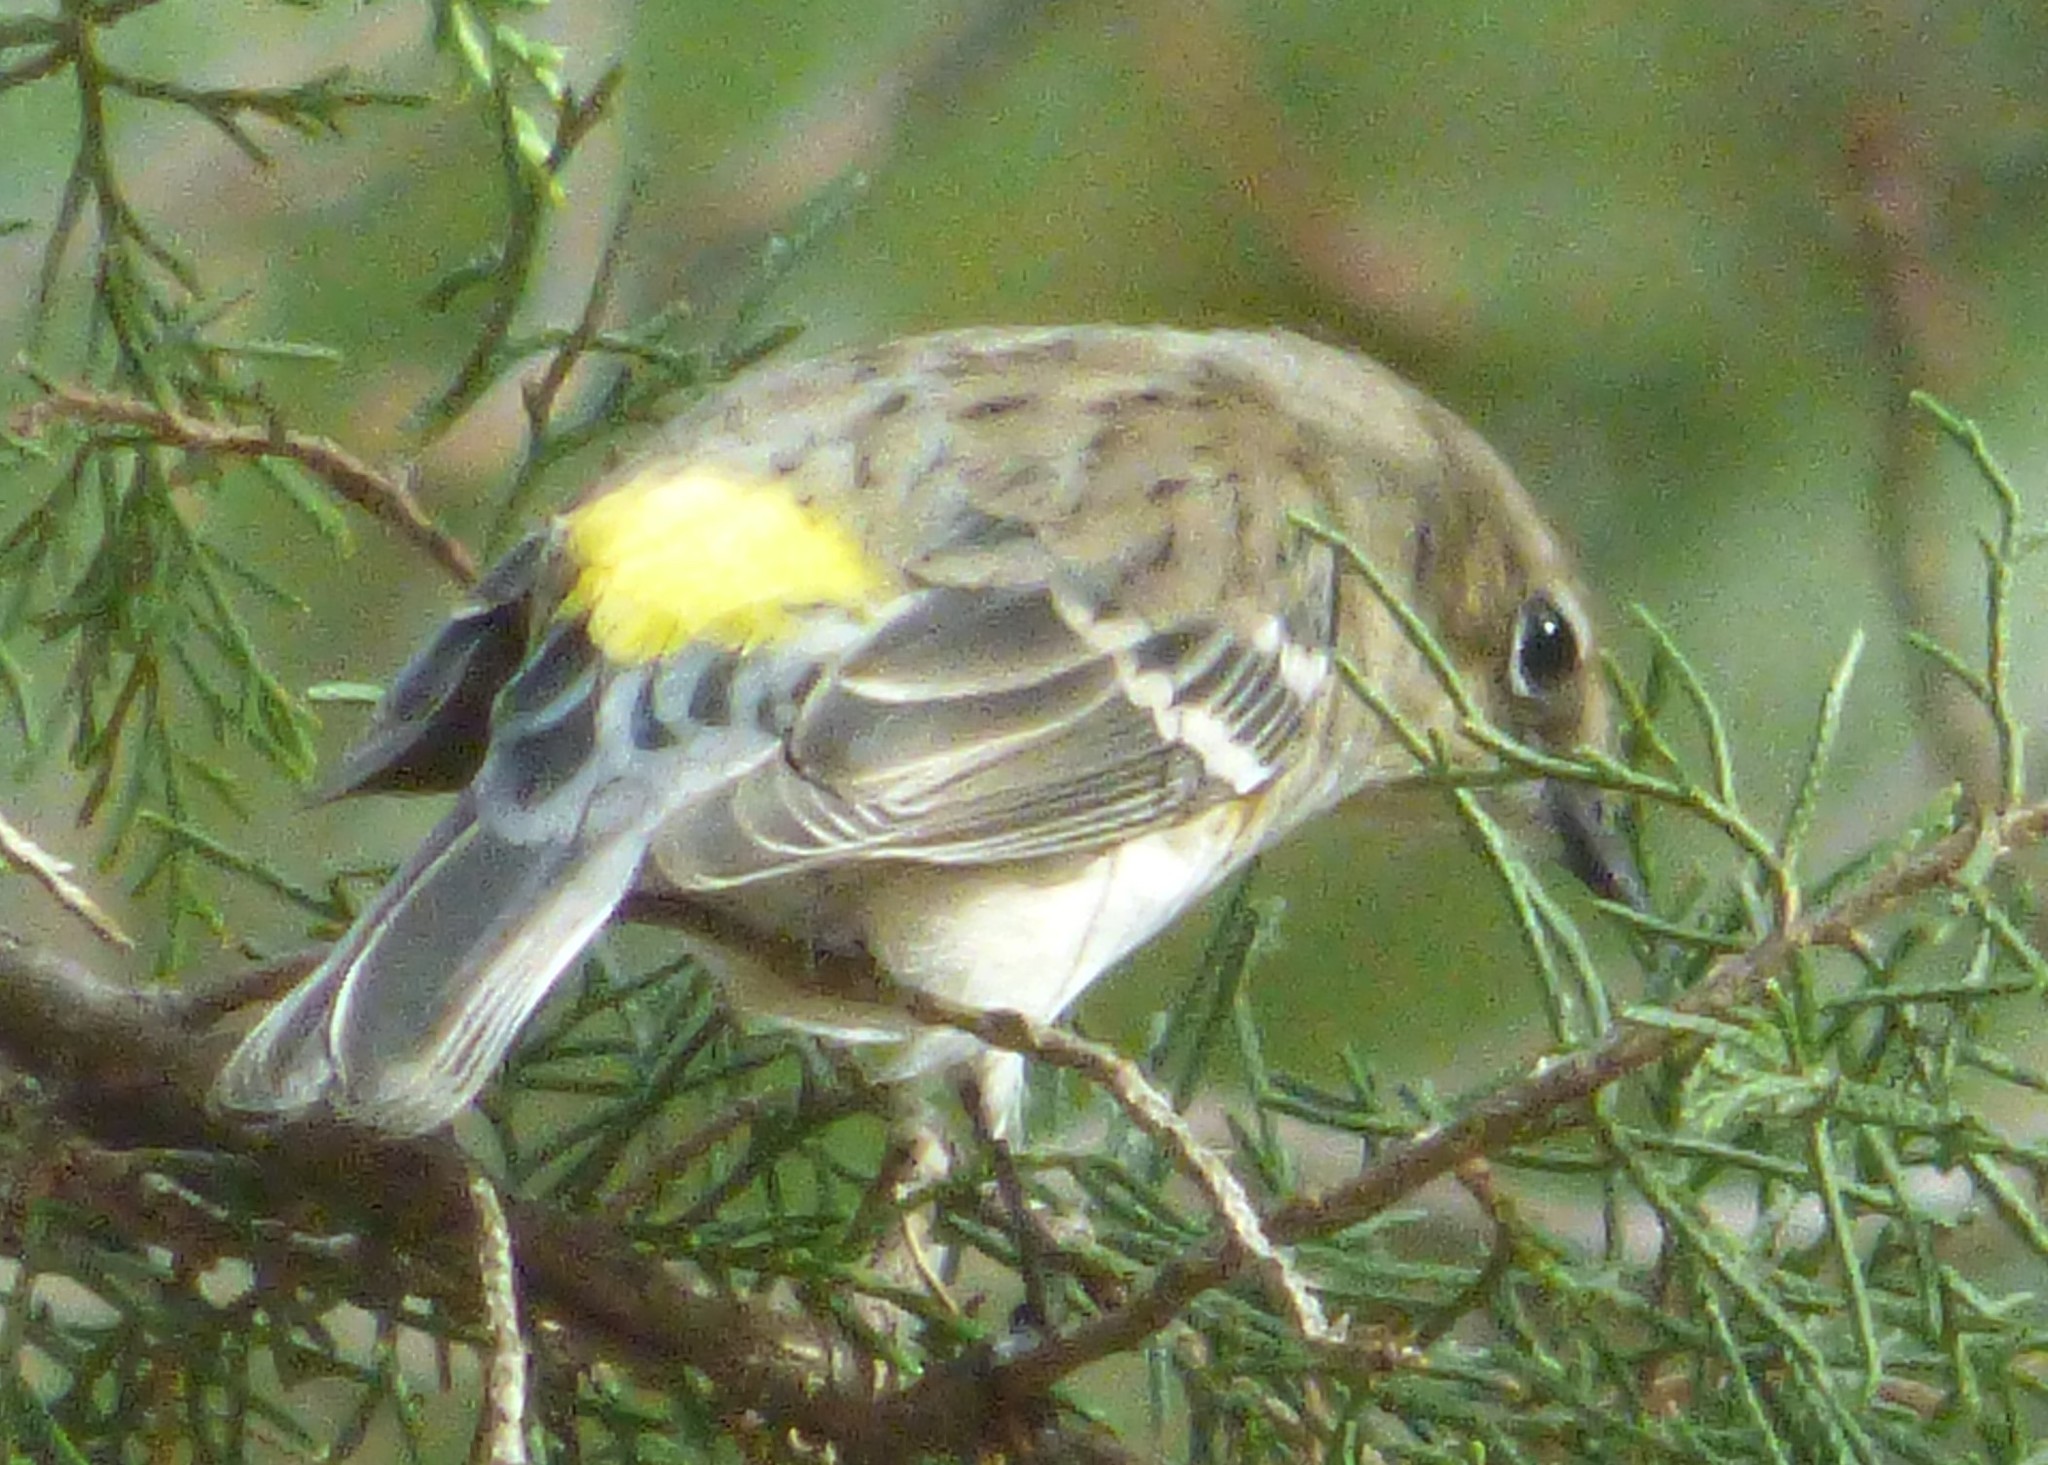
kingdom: Animalia
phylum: Chordata
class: Aves
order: Passeriformes
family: Parulidae
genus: Setophaga
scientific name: Setophaga coronata
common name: Myrtle warbler
